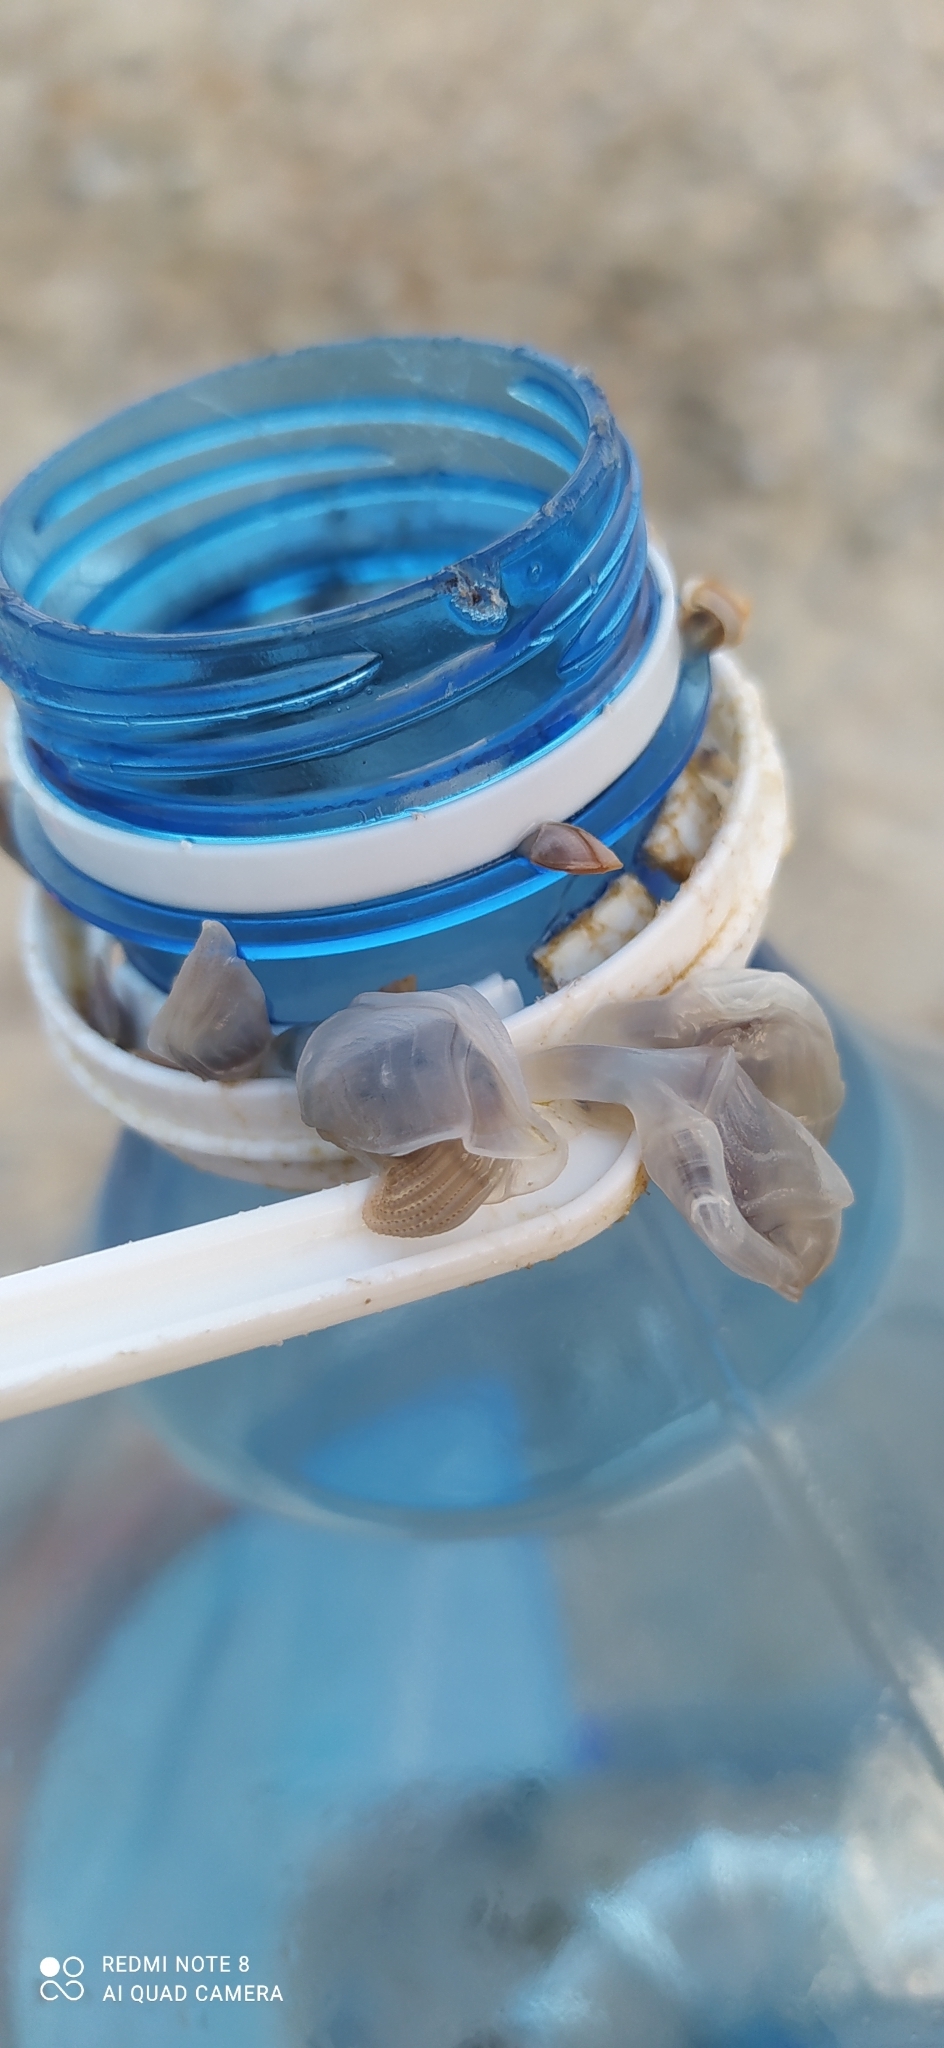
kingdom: Animalia
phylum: Arthropoda
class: Maxillopoda
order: Pedunculata
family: Lepadidae
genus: Dosima
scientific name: Dosima fascicularis
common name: Buoy barnacle
